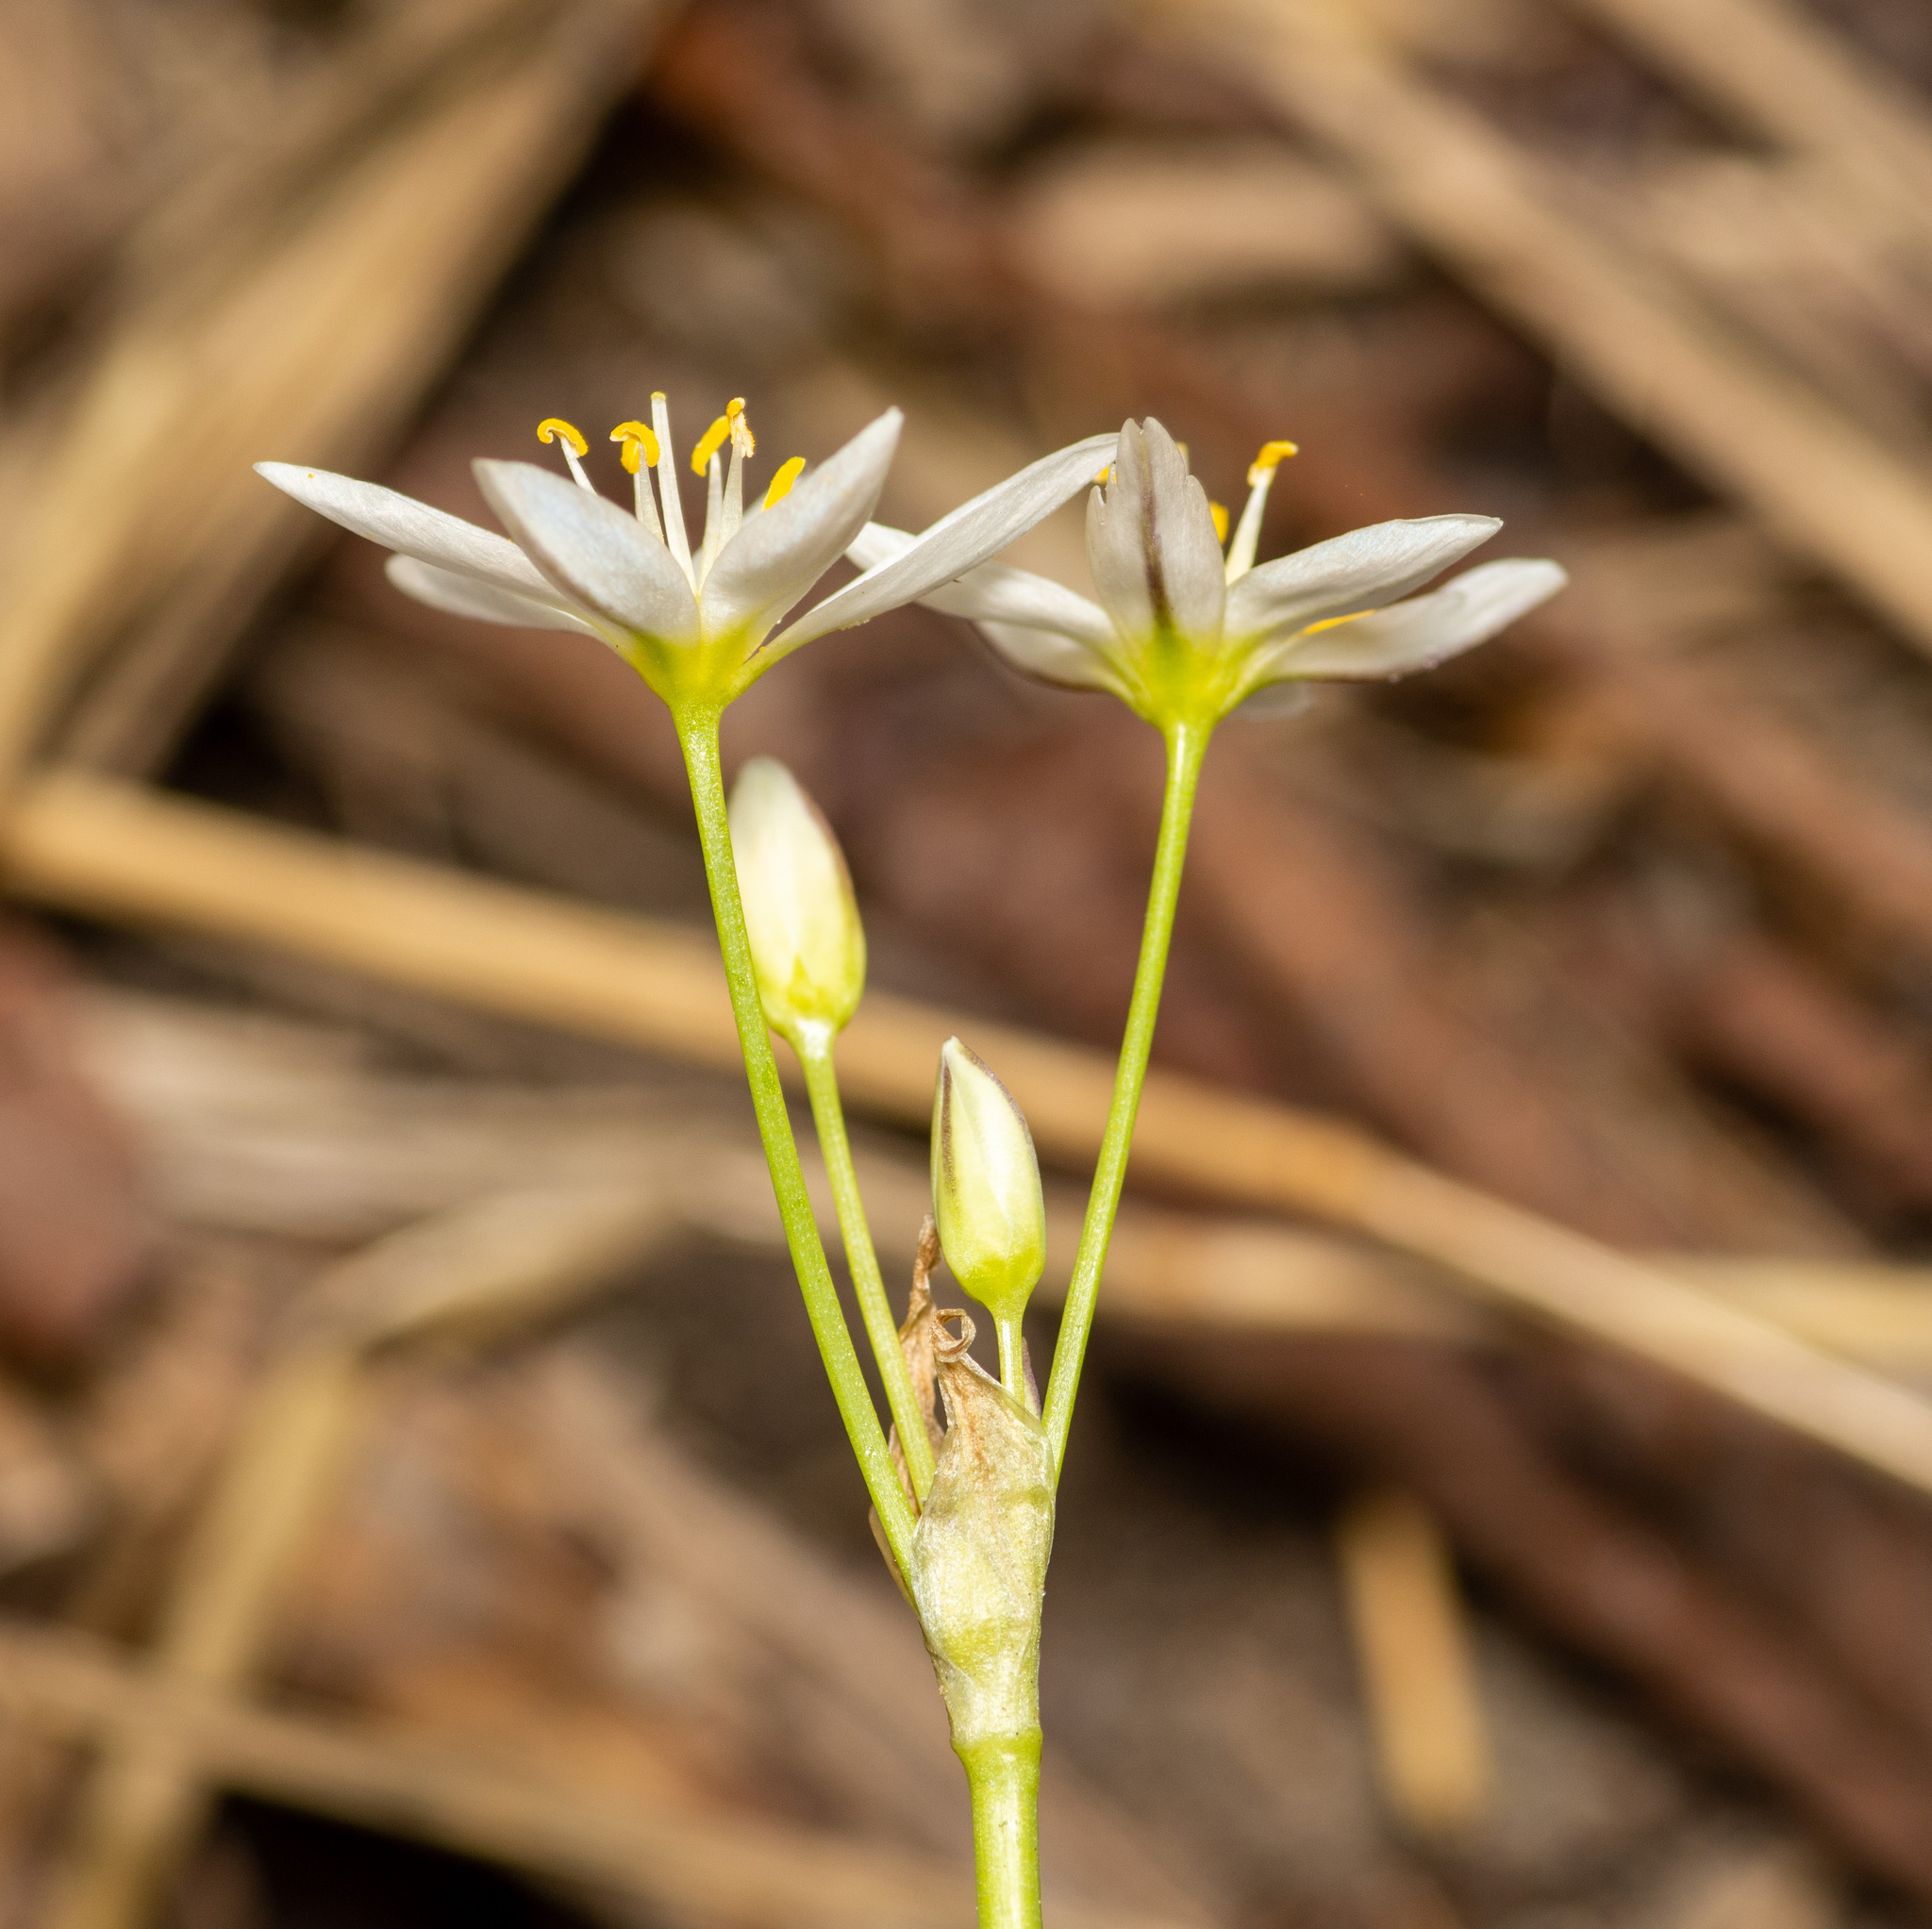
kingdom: Plantae
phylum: Tracheophyta
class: Liliopsida
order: Asparagales
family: Amaryllidaceae
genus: Nothoscordum
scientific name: Nothoscordum bivalve
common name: Crow-poison
